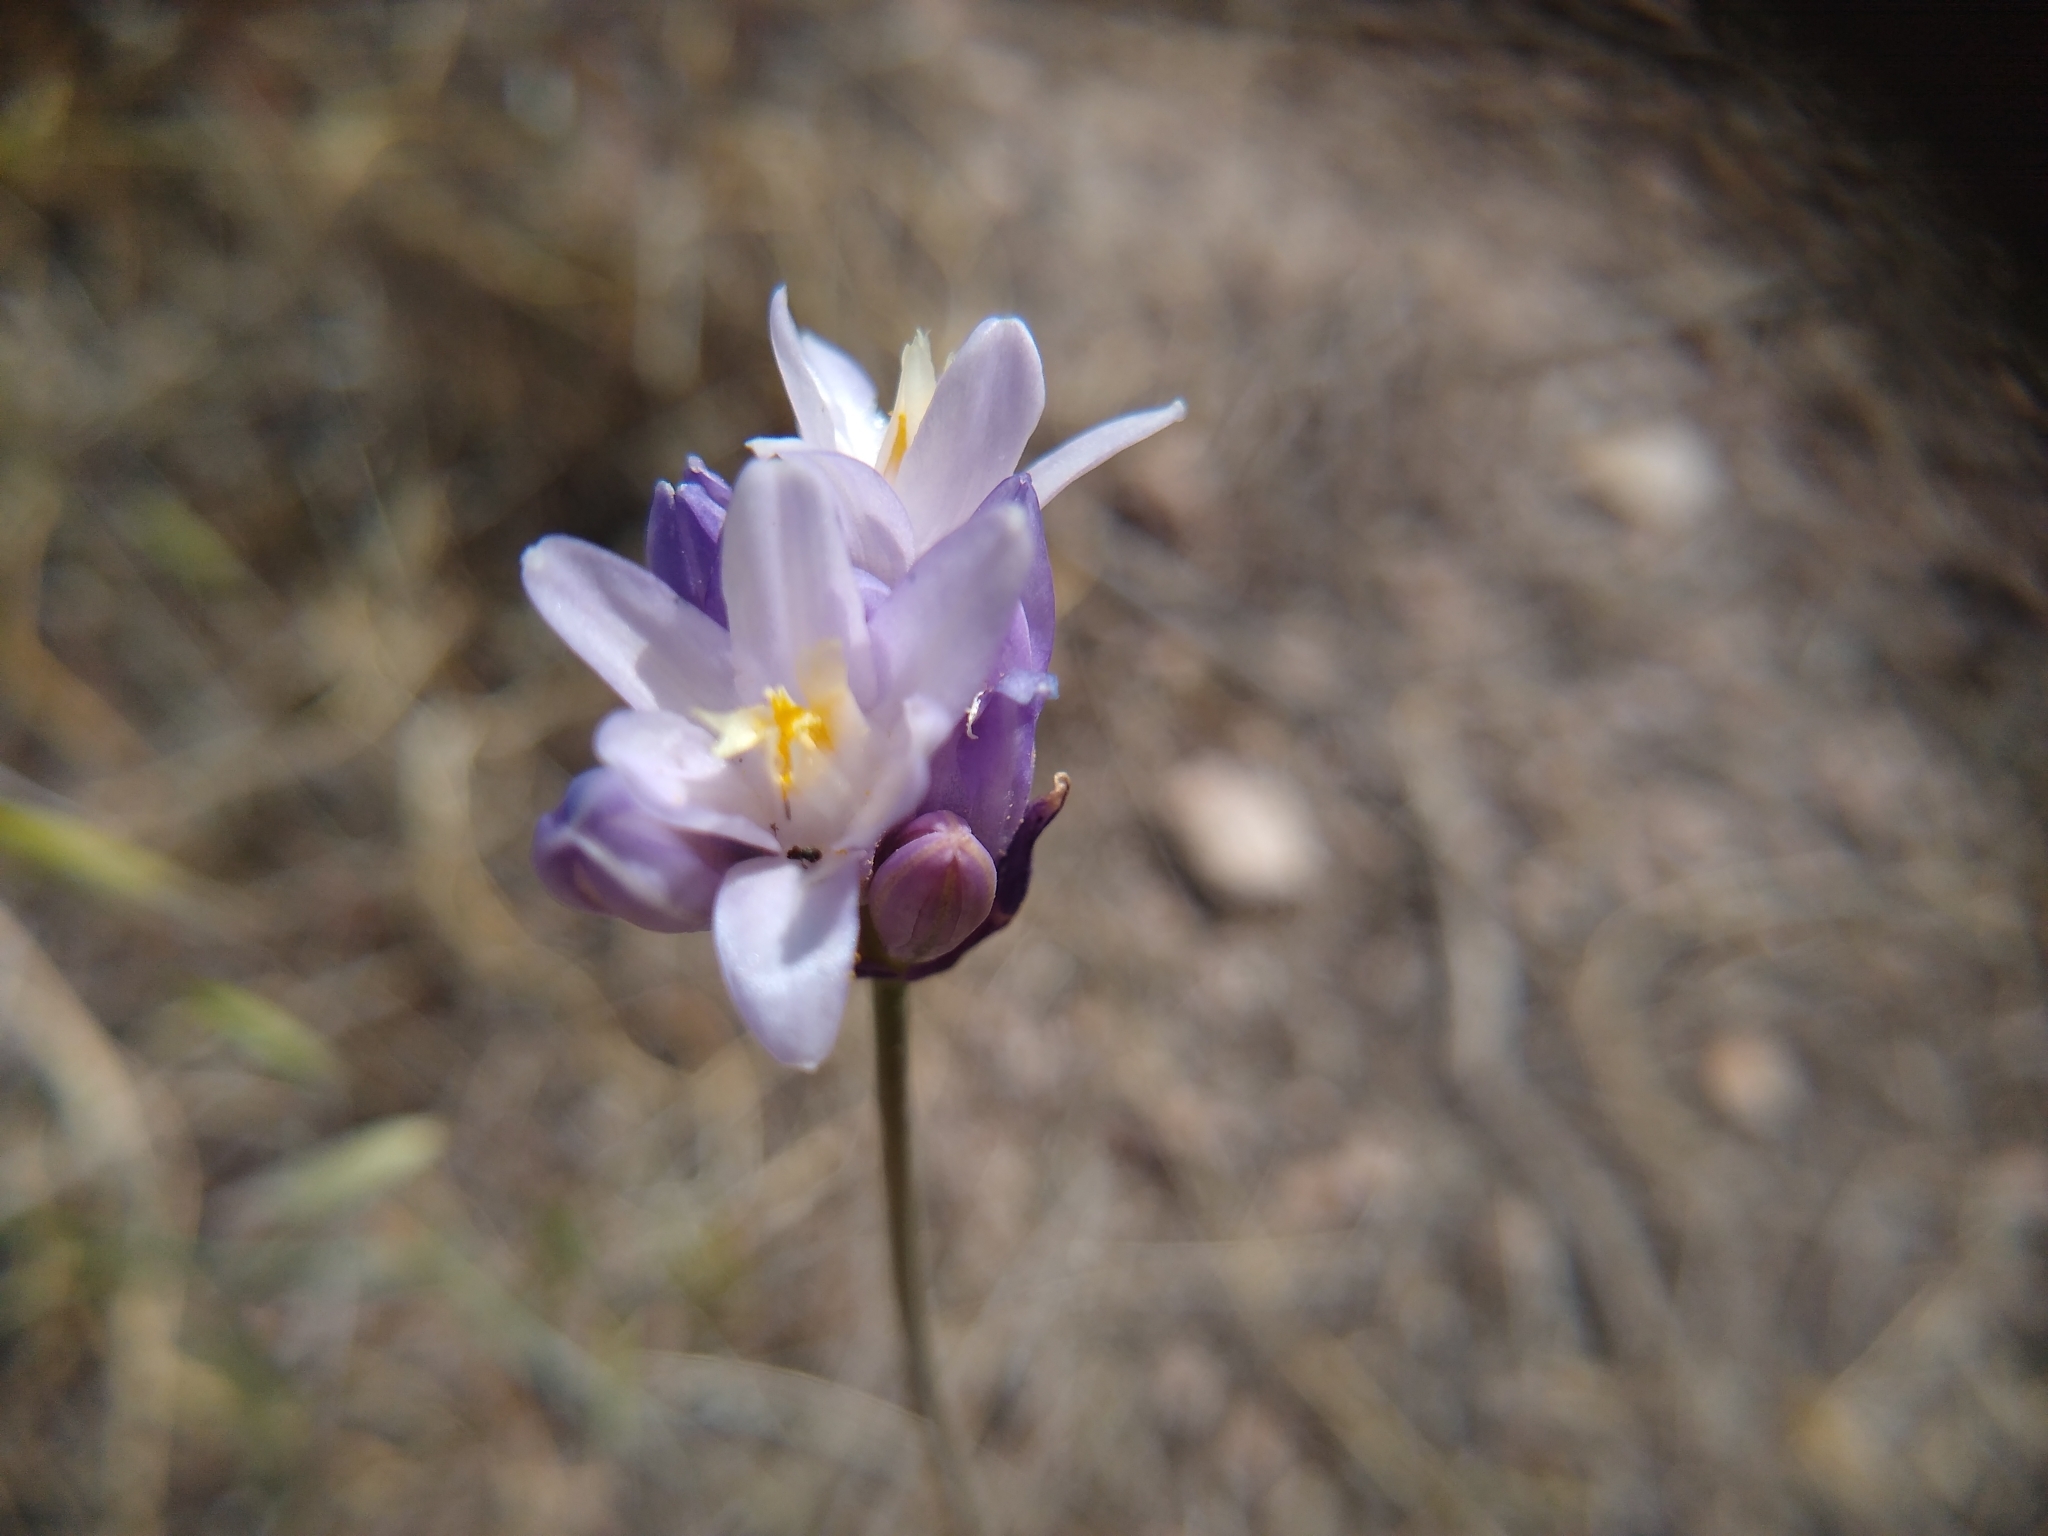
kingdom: Plantae
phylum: Tracheophyta
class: Liliopsida
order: Asparagales
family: Asparagaceae
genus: Dipterostemon
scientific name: Dipterostemon capitatus
